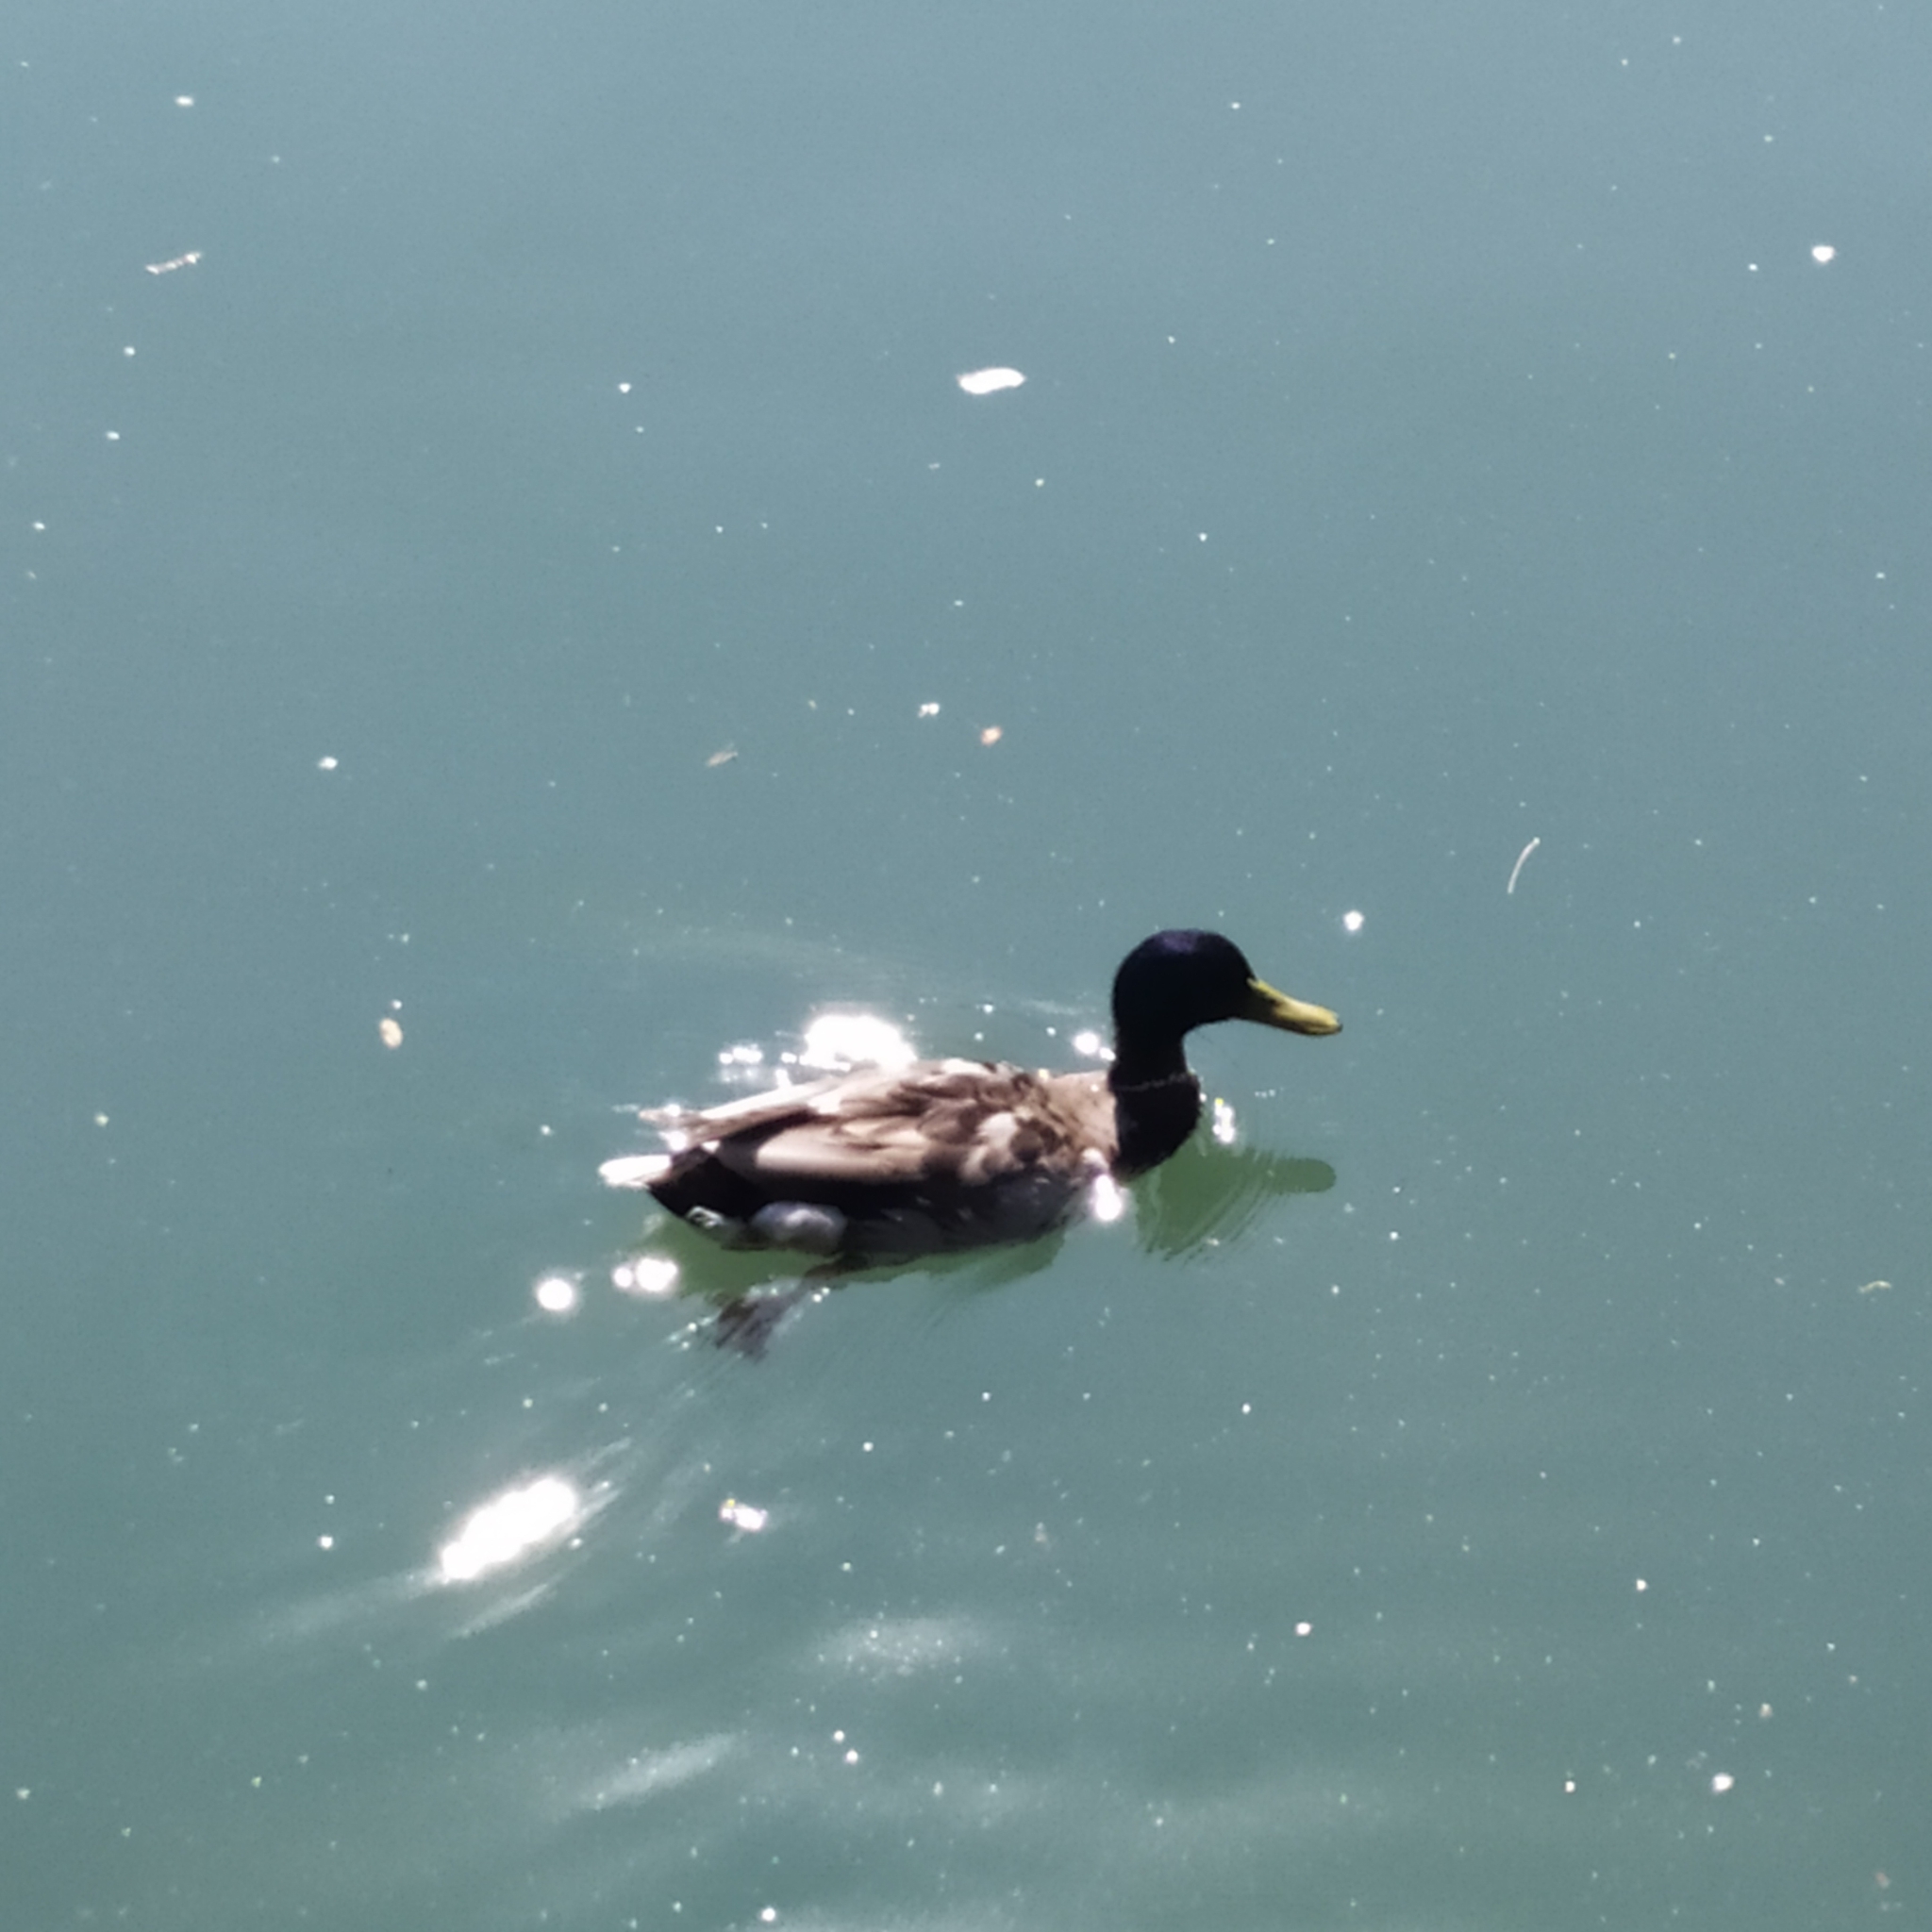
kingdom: Animalia
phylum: Chordata
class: Aves
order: Anseriformes
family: Anatidae
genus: Anas
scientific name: Anas platyrhynchos
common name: Mallard
